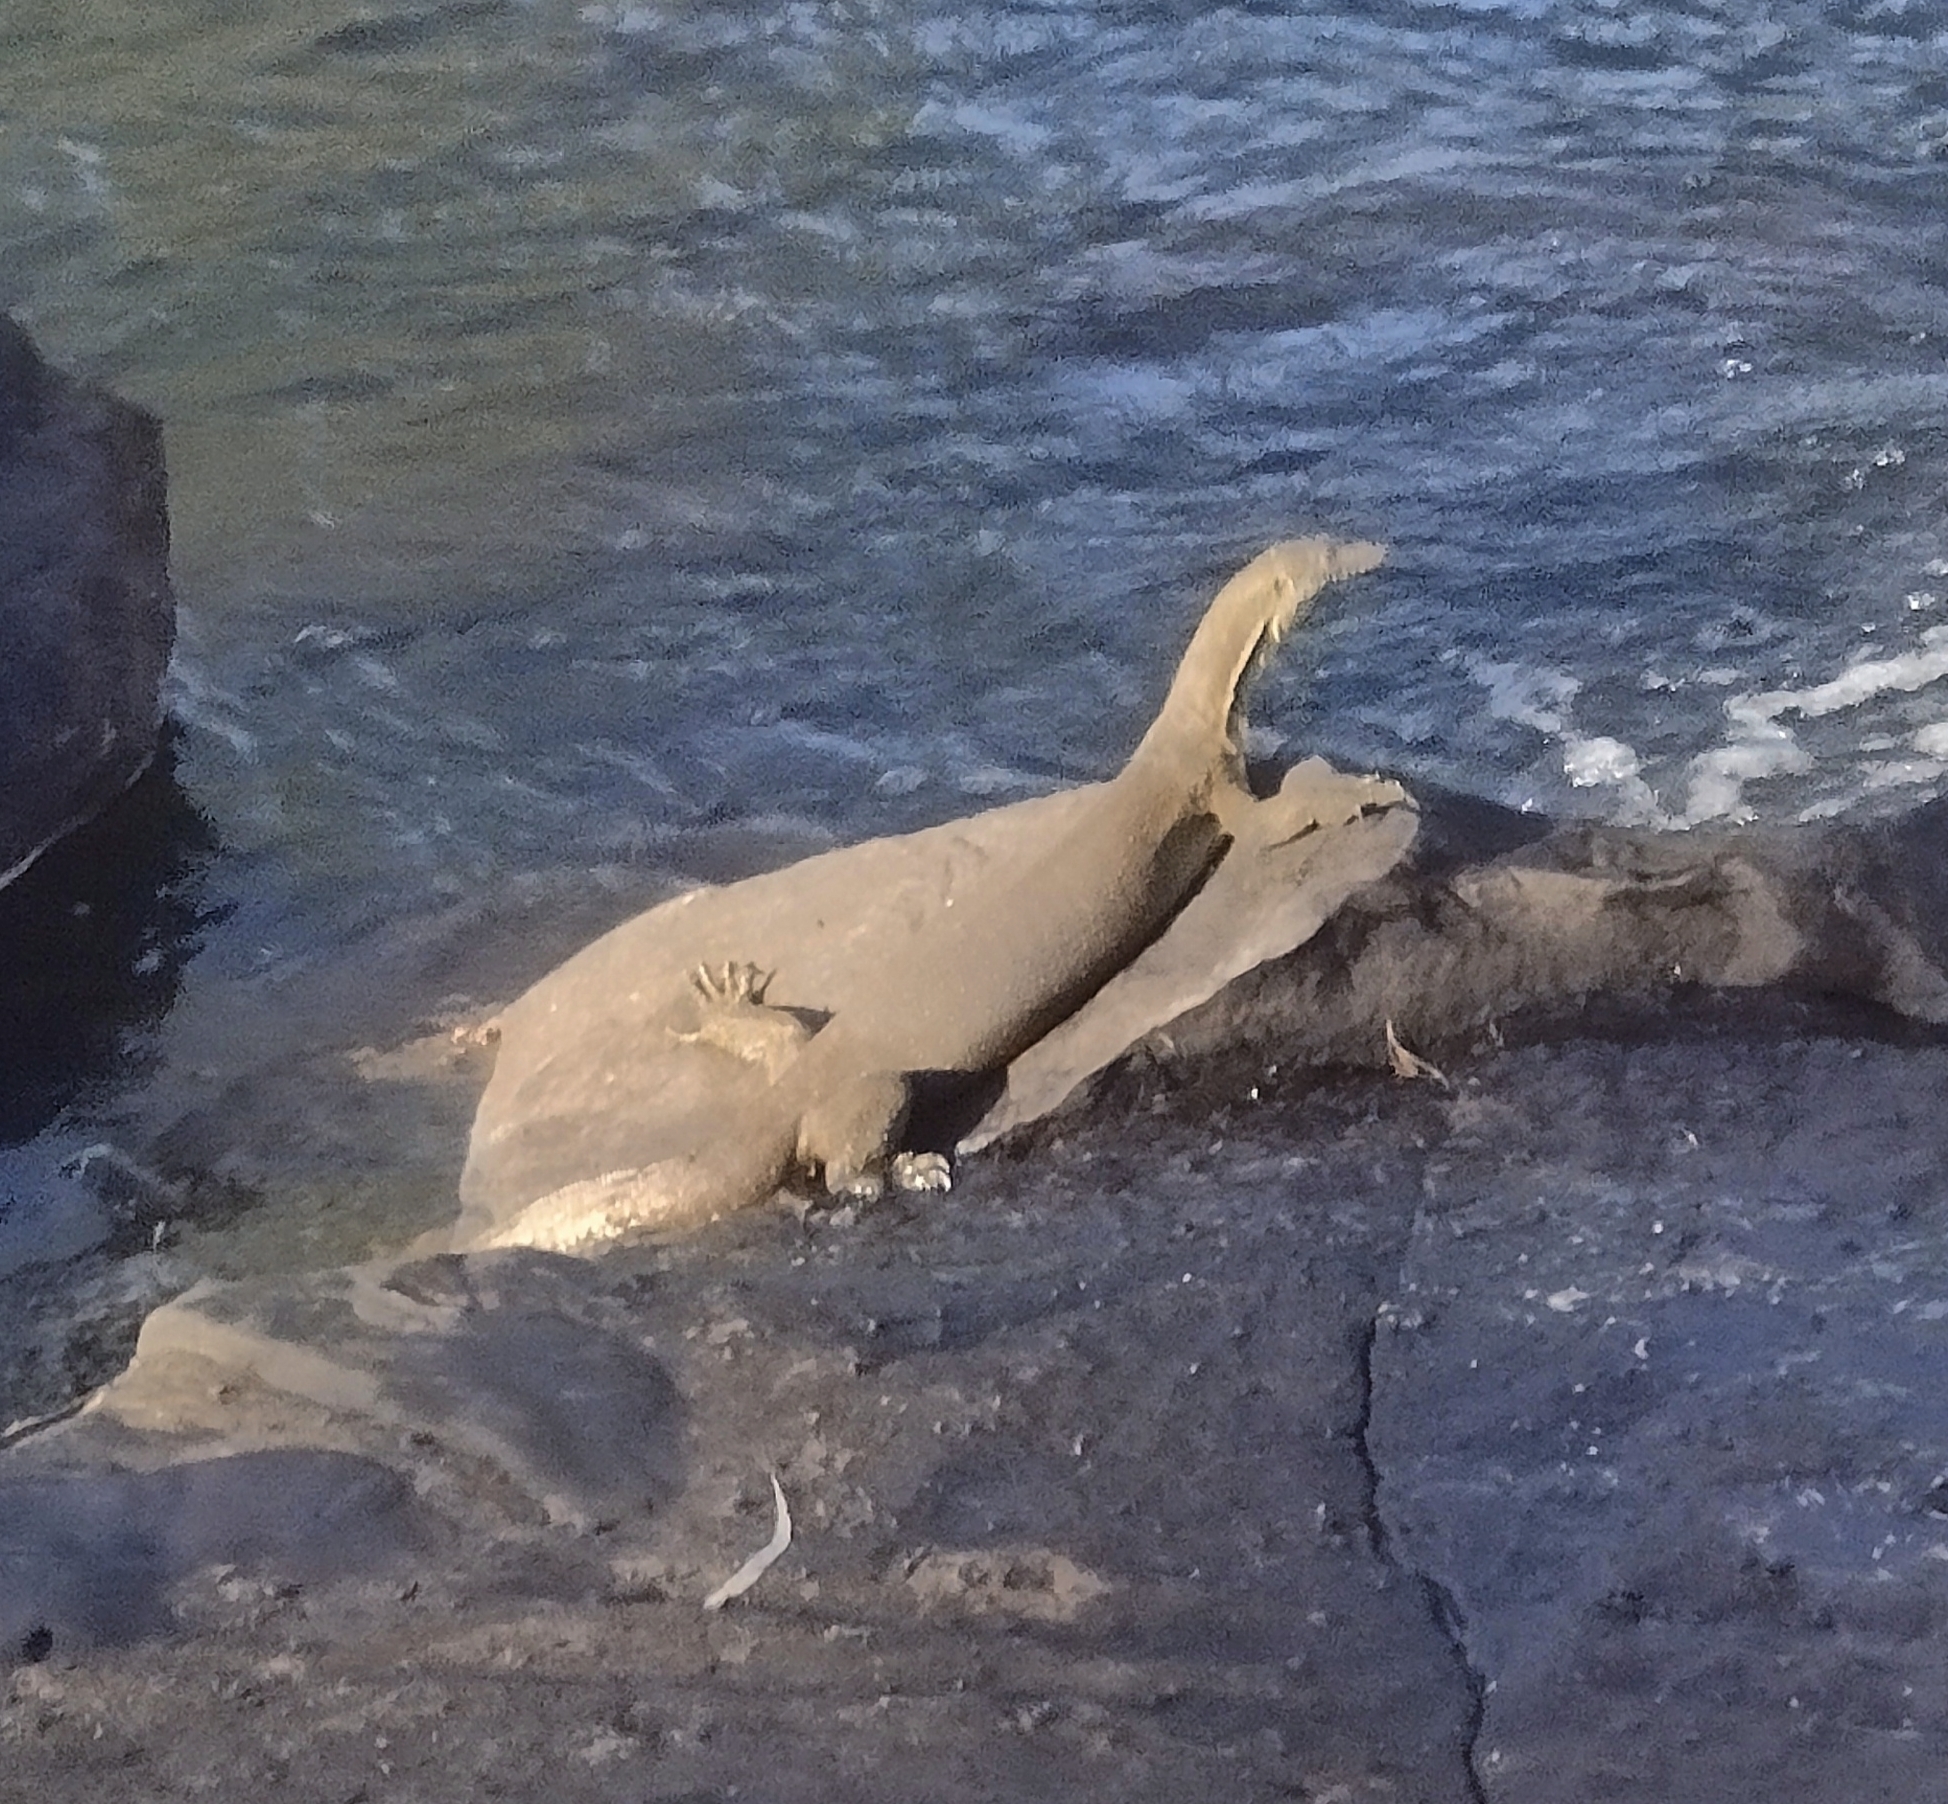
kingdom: Animalia
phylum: Chordata
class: Squamata
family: Varanidae
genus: Varanus
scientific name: Varanus mertensi
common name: Mertens's water monitor
